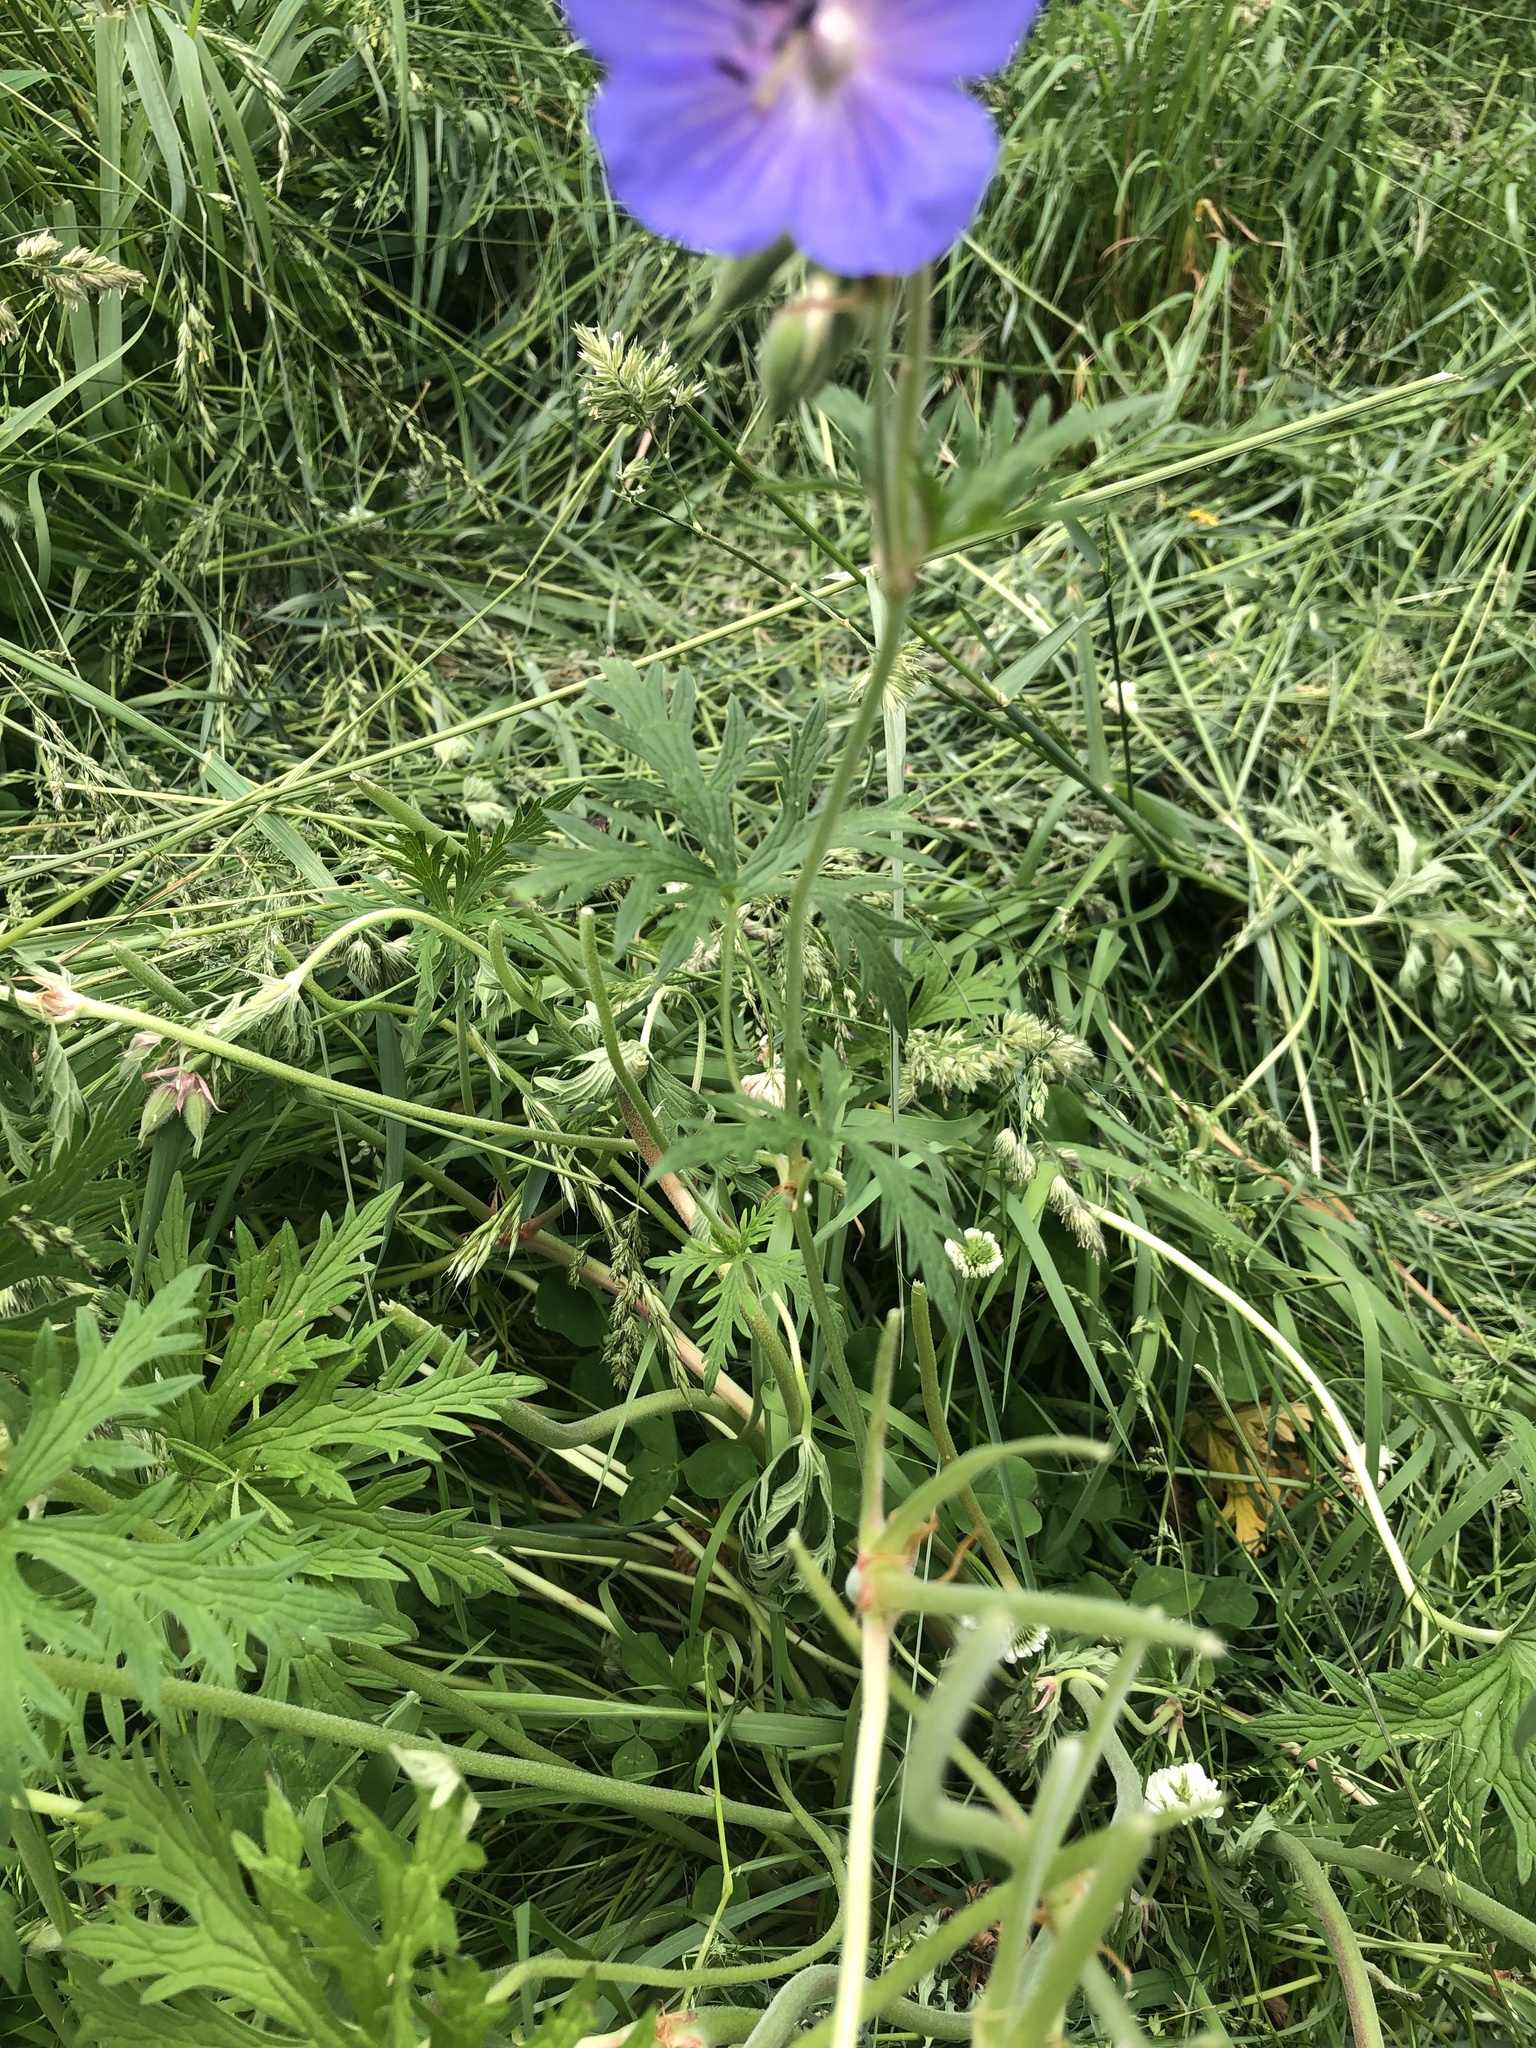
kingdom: Plantae
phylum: Tracheophyta
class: Magnoliopsida
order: Geraniales
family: Geraniaceae
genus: Geranium
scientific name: Geranium pratense
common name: Meadow crane's-bill
